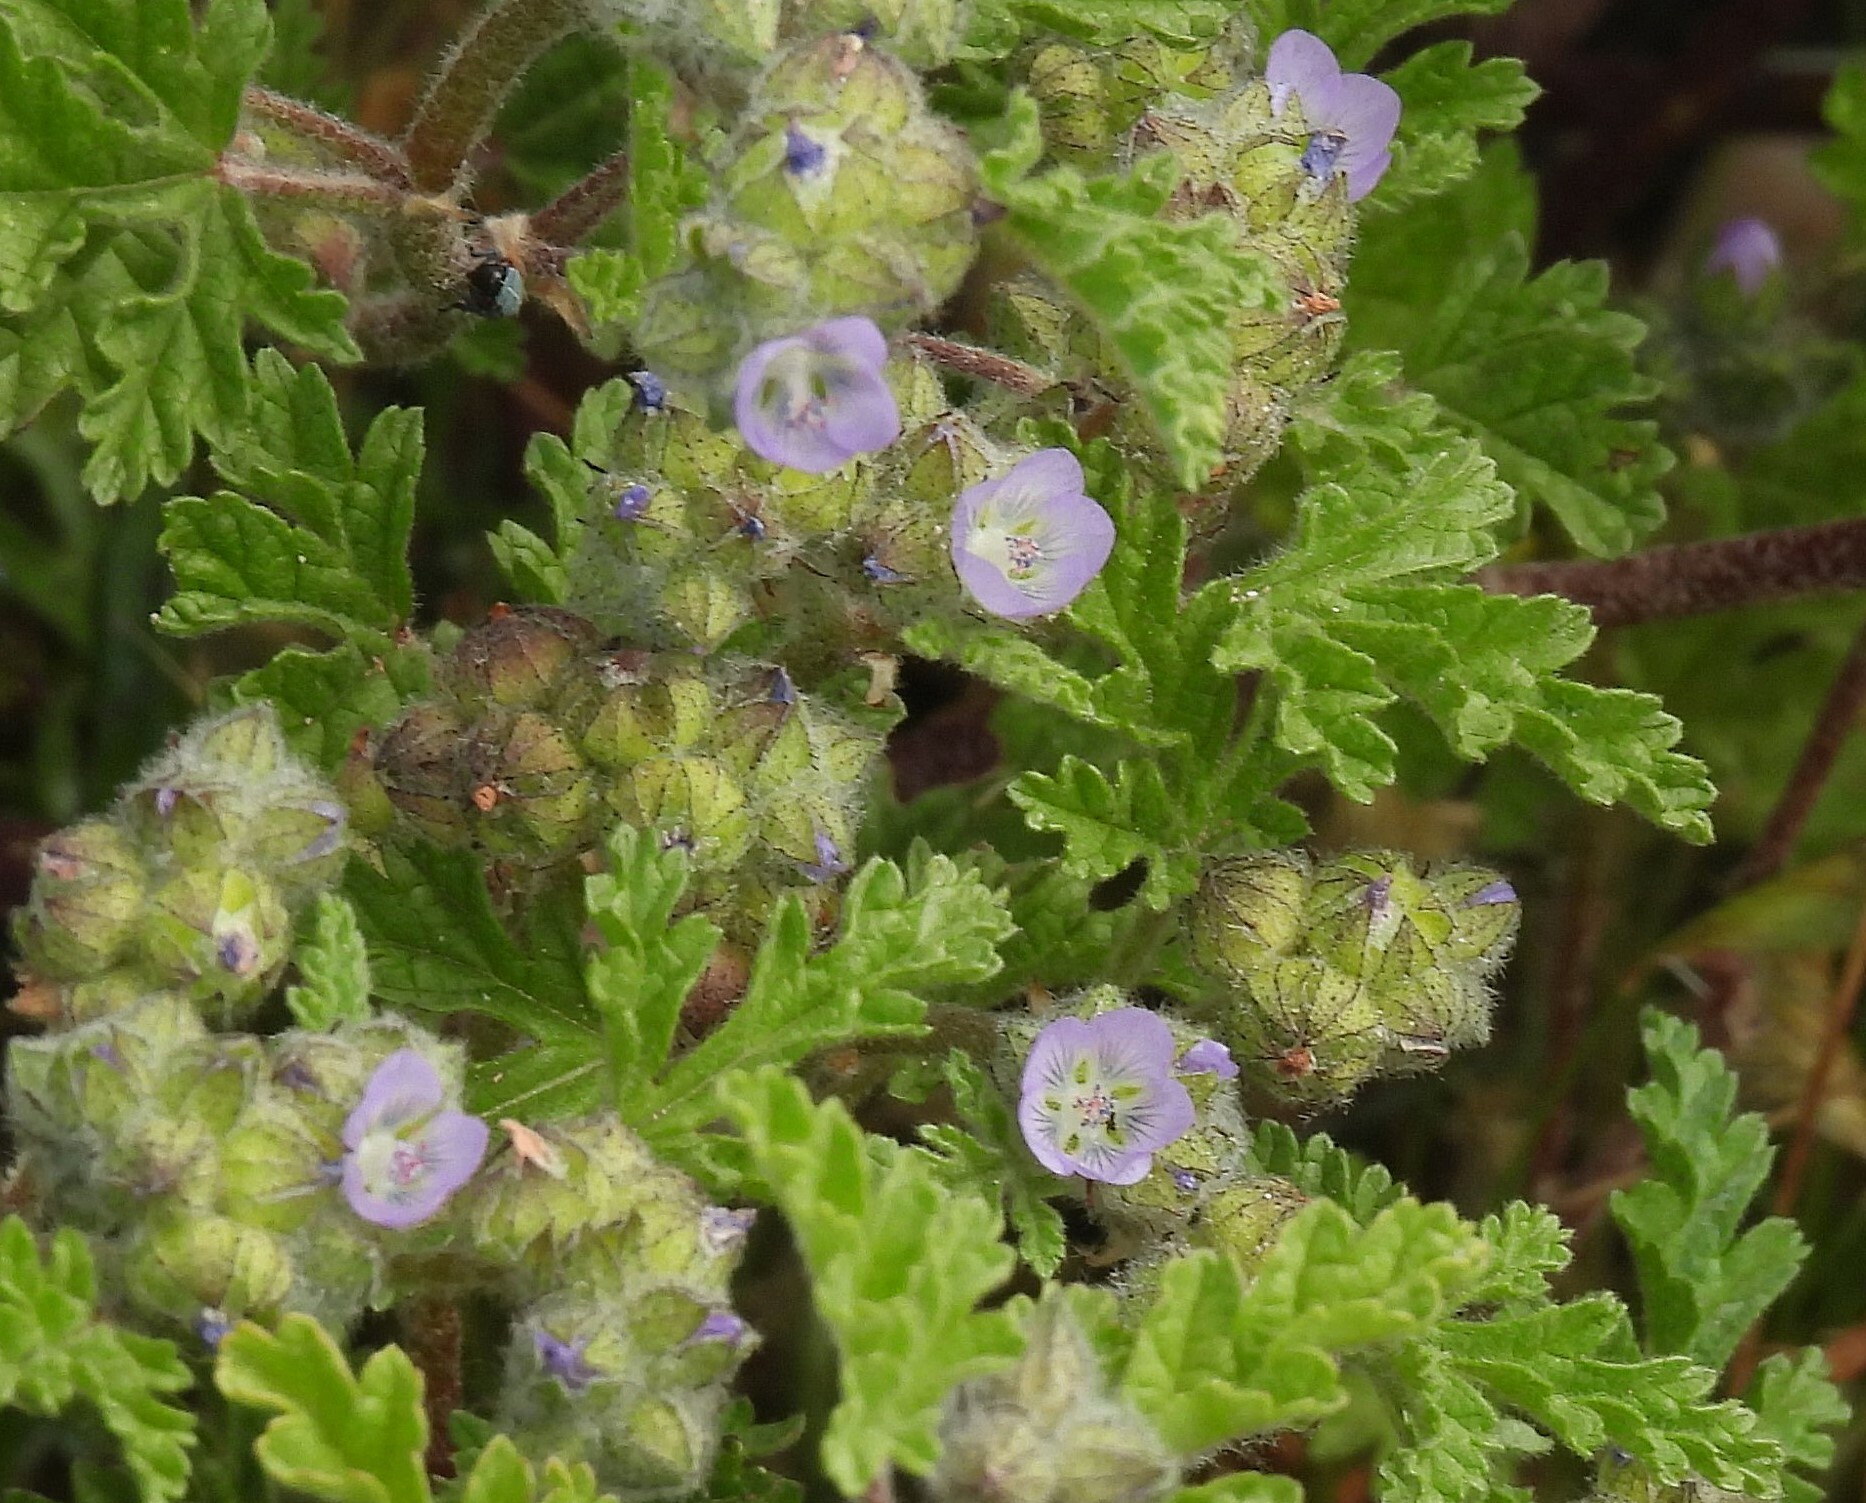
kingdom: Plantae
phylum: Tracheophyta
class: Magnoliopsida
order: Malvales
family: Malvaceae
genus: Tarasa
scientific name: Tarasa odonellii
